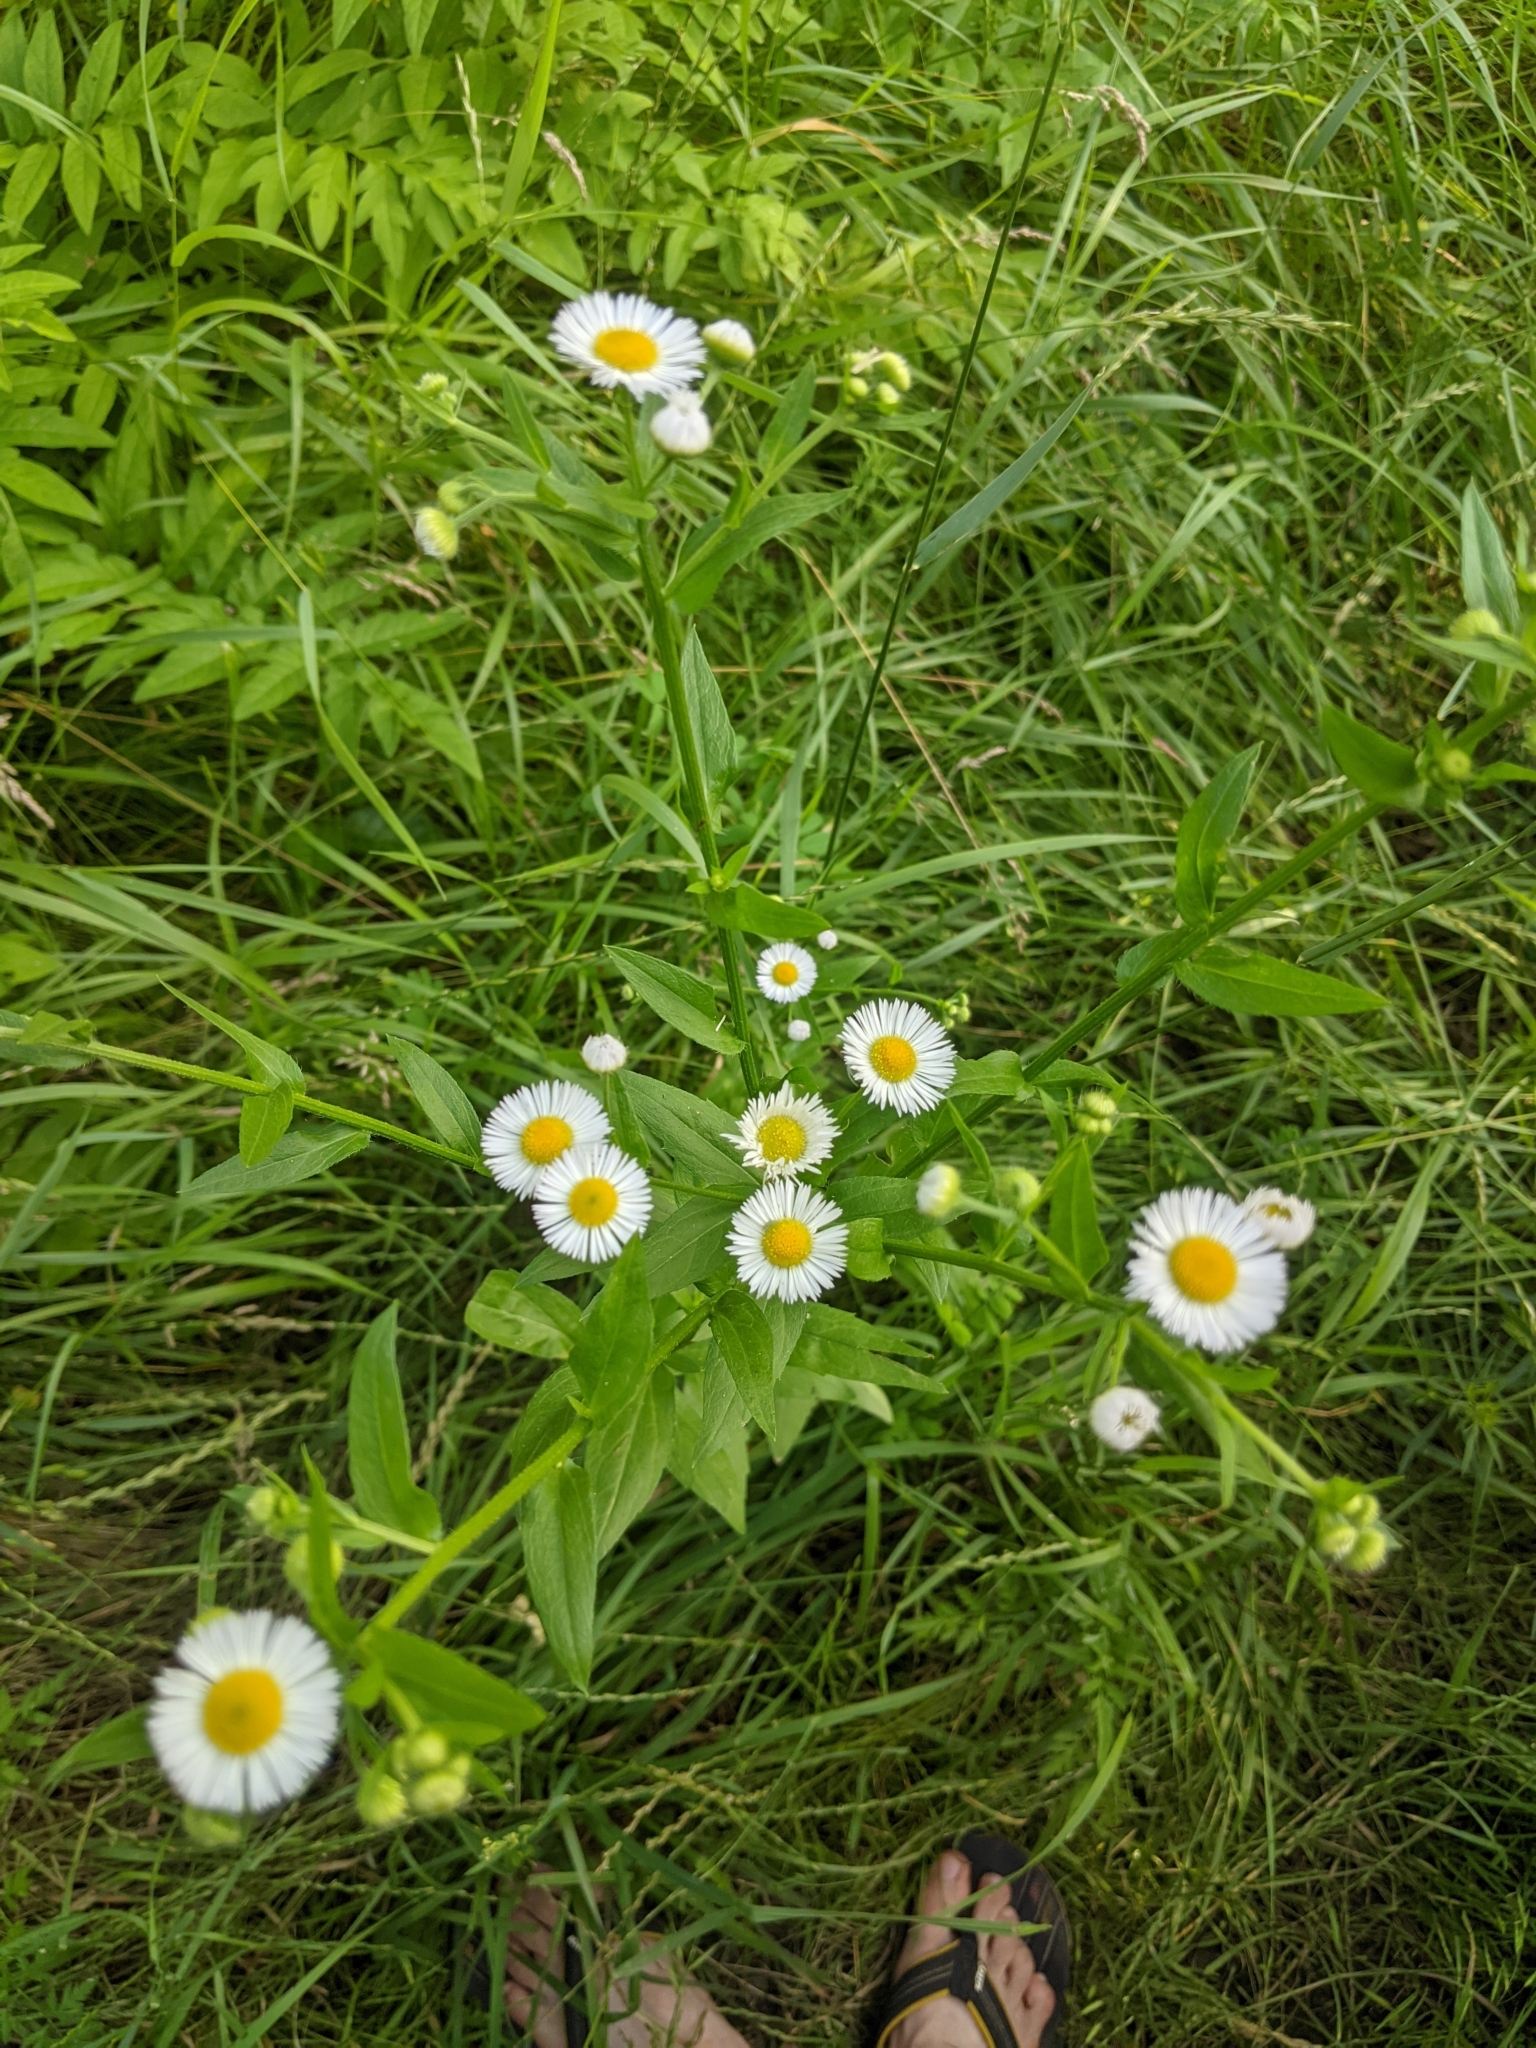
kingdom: Plantae
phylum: Tracheophyta
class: Magnoliopsida
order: Asterales
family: Asteraceae
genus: Erigeron
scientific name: Erigeron annuus
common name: Tall fleabane
